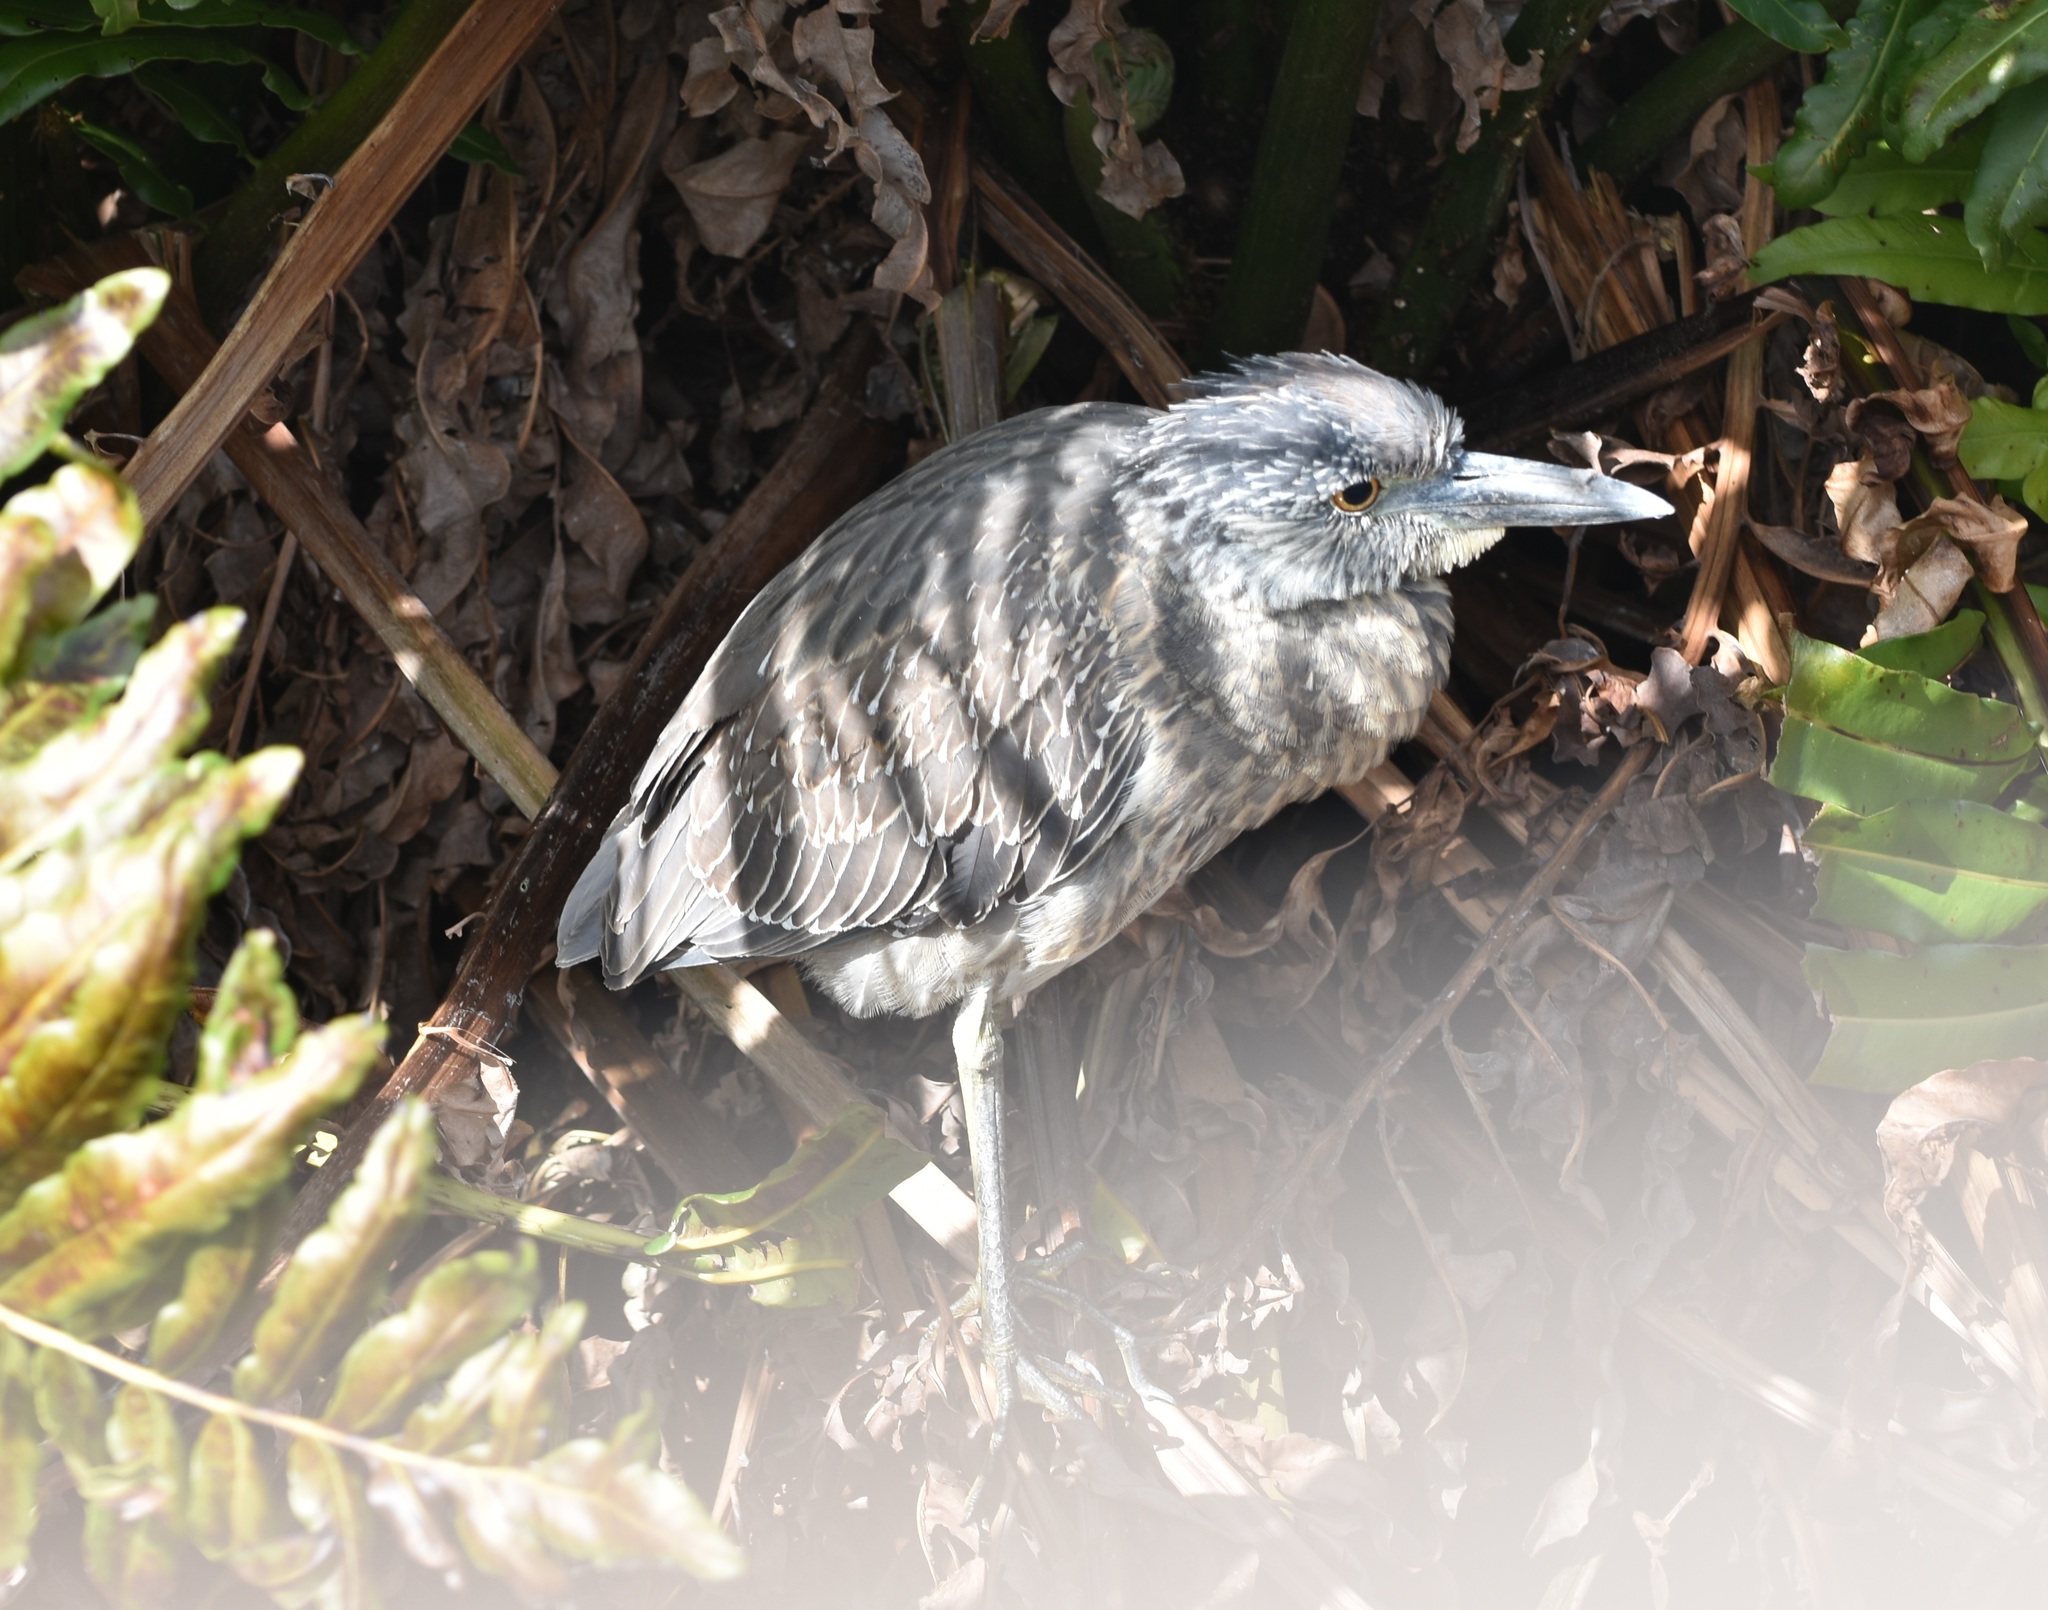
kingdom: Animalia
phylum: Chordata
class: Aves
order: Pelecaniformes
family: Ardeidae
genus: Nyctanassa
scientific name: Nyctanassa violacea
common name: Yellow-crowned night heron
